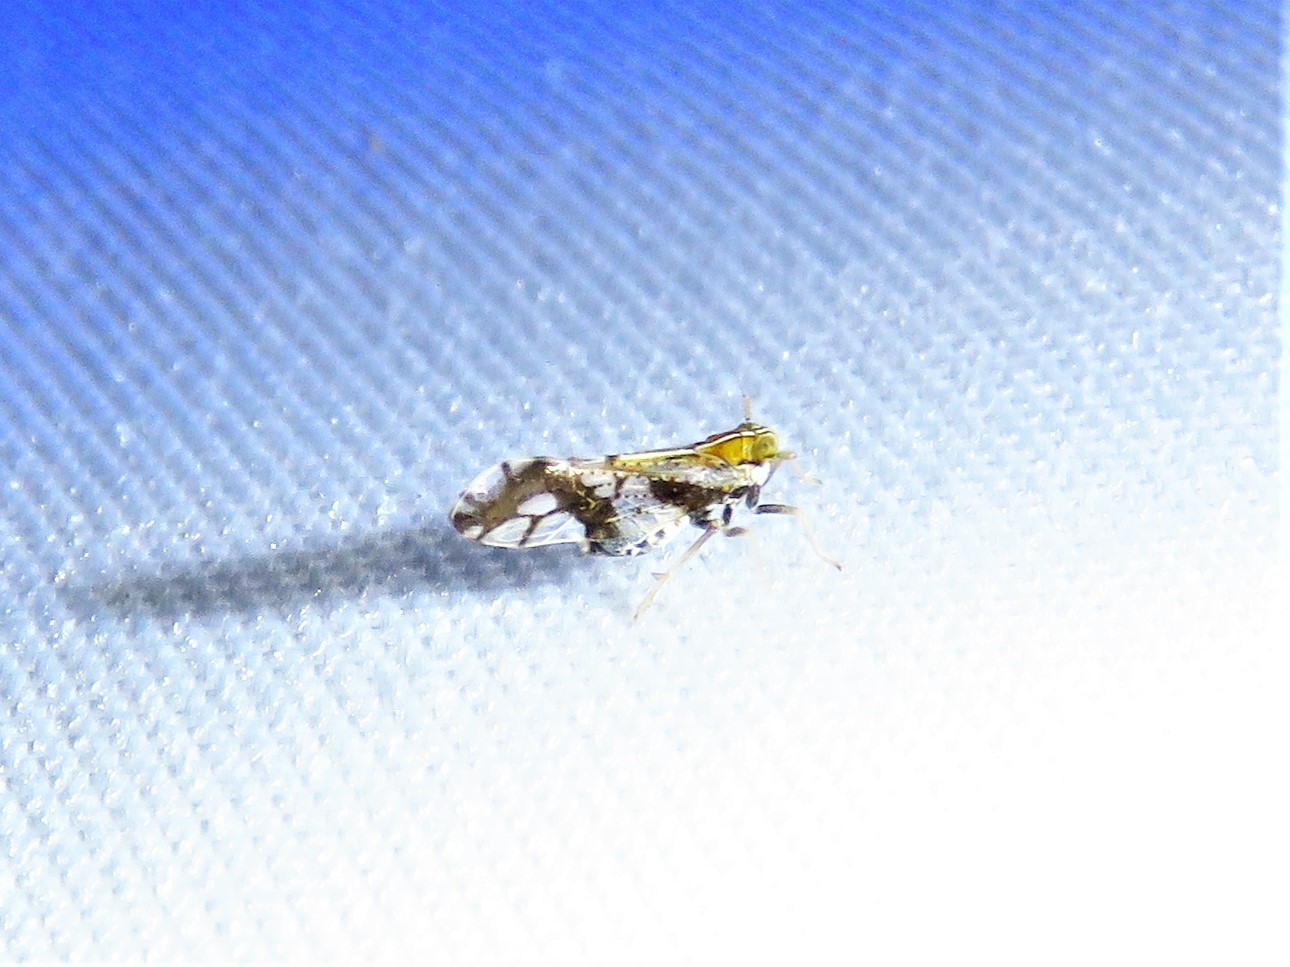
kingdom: Animalia
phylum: Arthropoda
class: Insecta
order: Hemiptera
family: Delphacidae
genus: Liburniella
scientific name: Liburniella ornata
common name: Ornate planthopper
